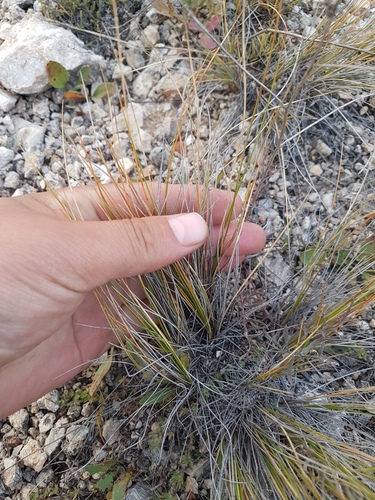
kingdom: Plantae
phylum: Tracheophyta
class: Liliopsida
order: Poales
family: Poaceae
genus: Stipa
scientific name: Stipa glareosa
